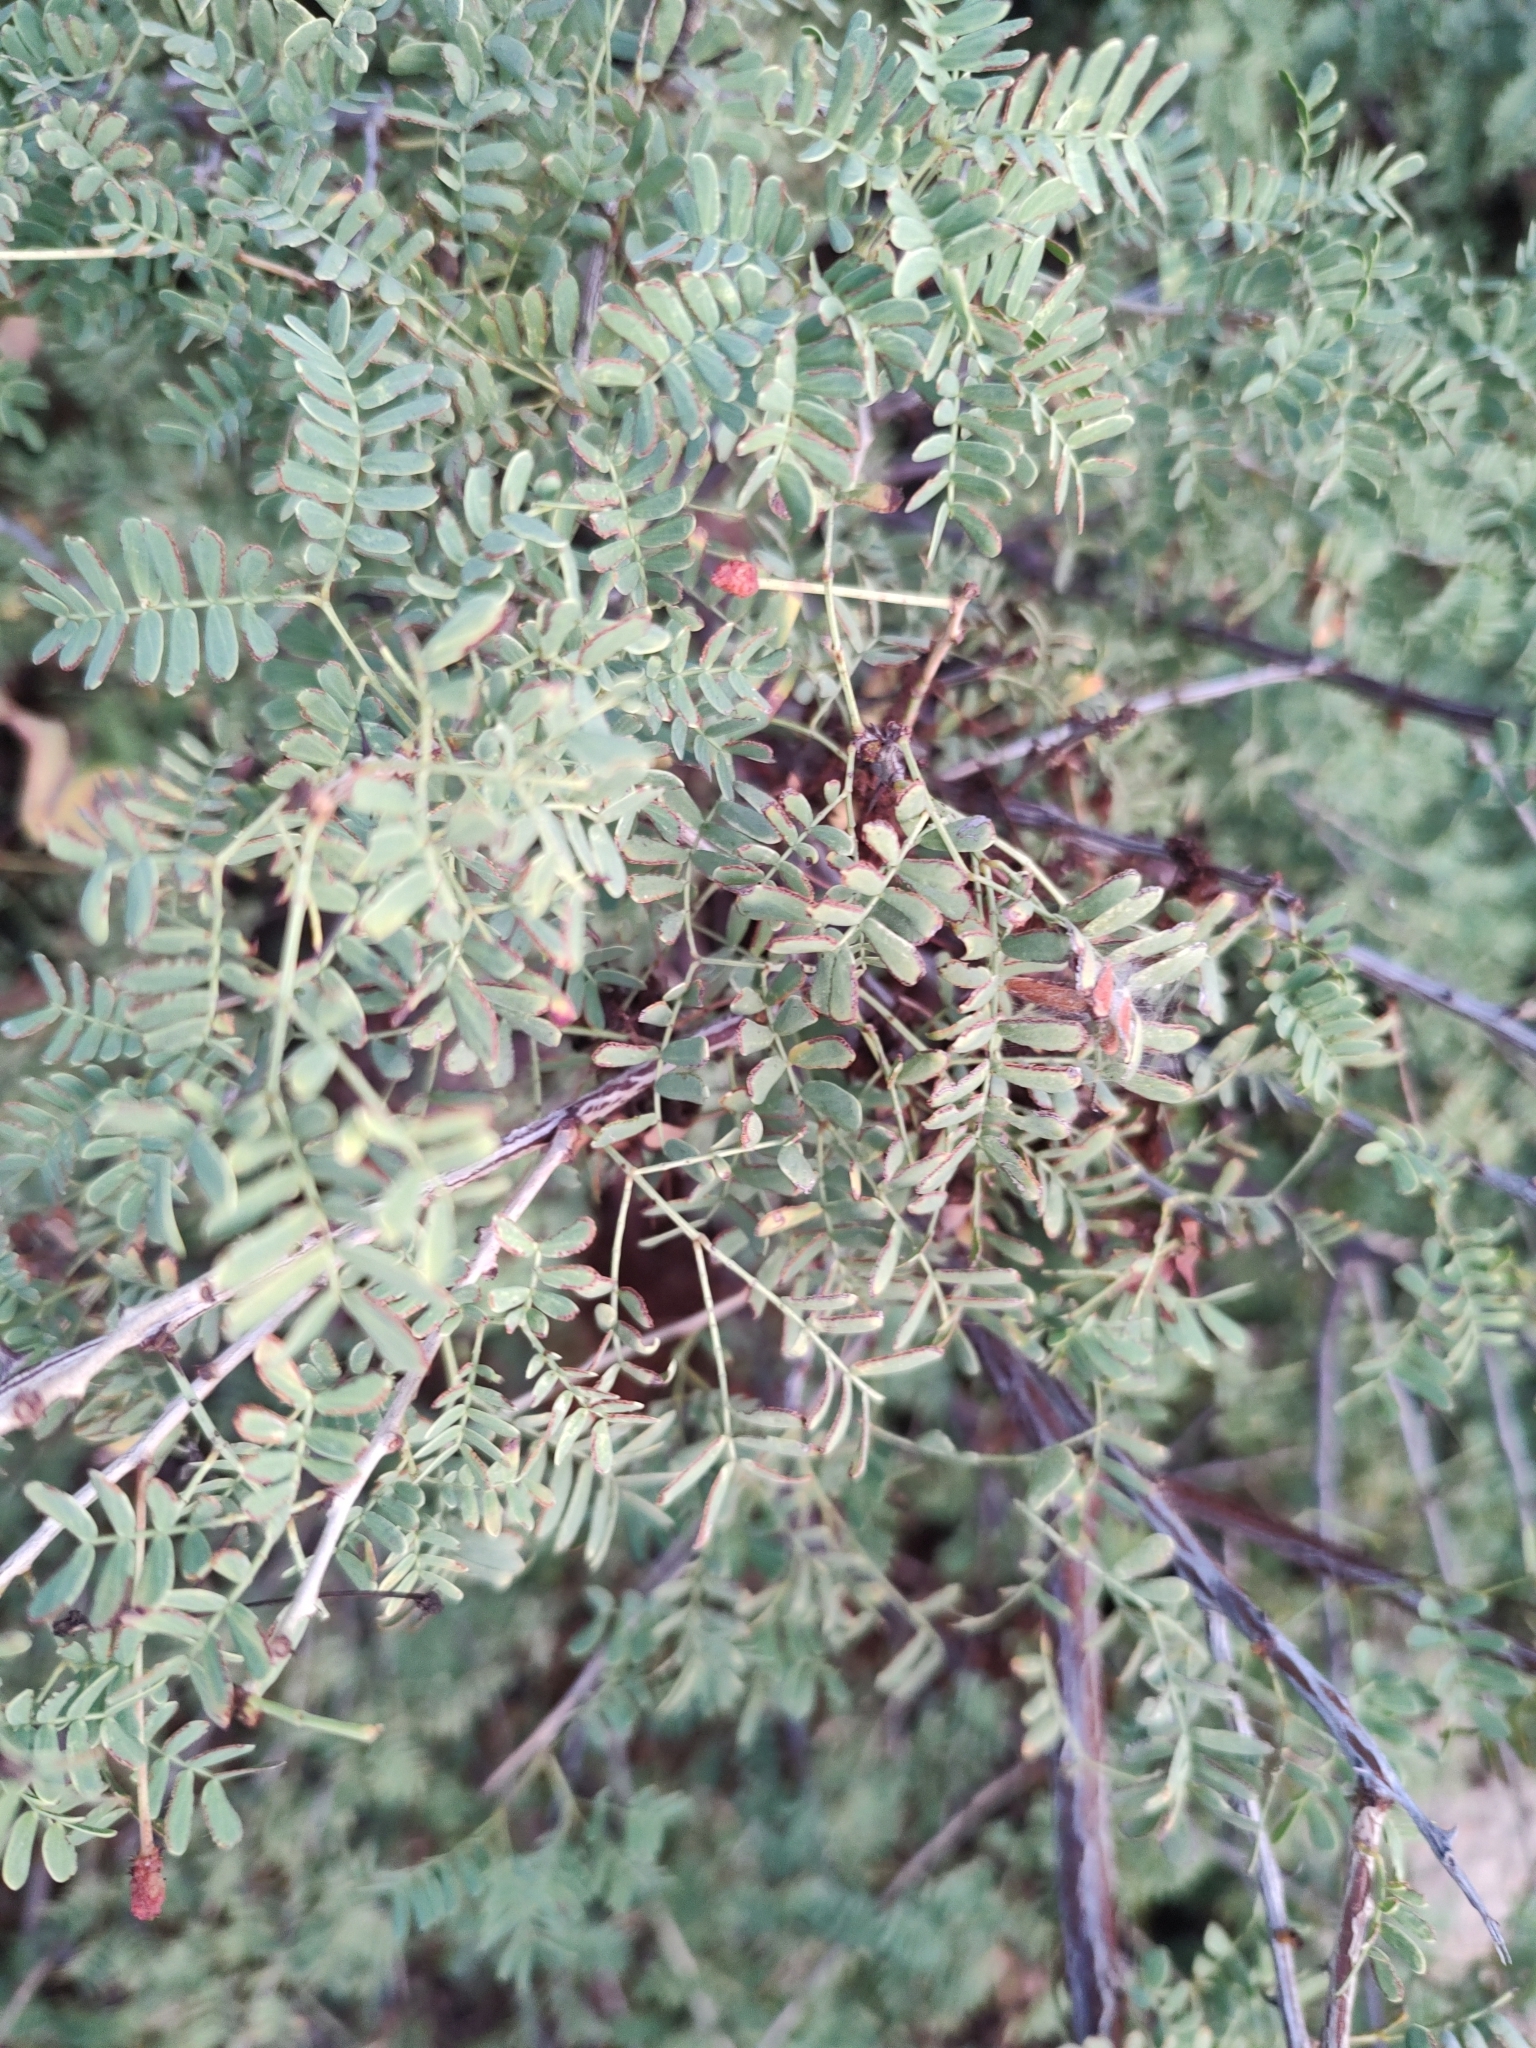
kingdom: Plantae
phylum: Tracheophyta
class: Magnoliopsida
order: Fabales
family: Fabaceae
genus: Senegalia
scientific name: Senegalia peninsularis
